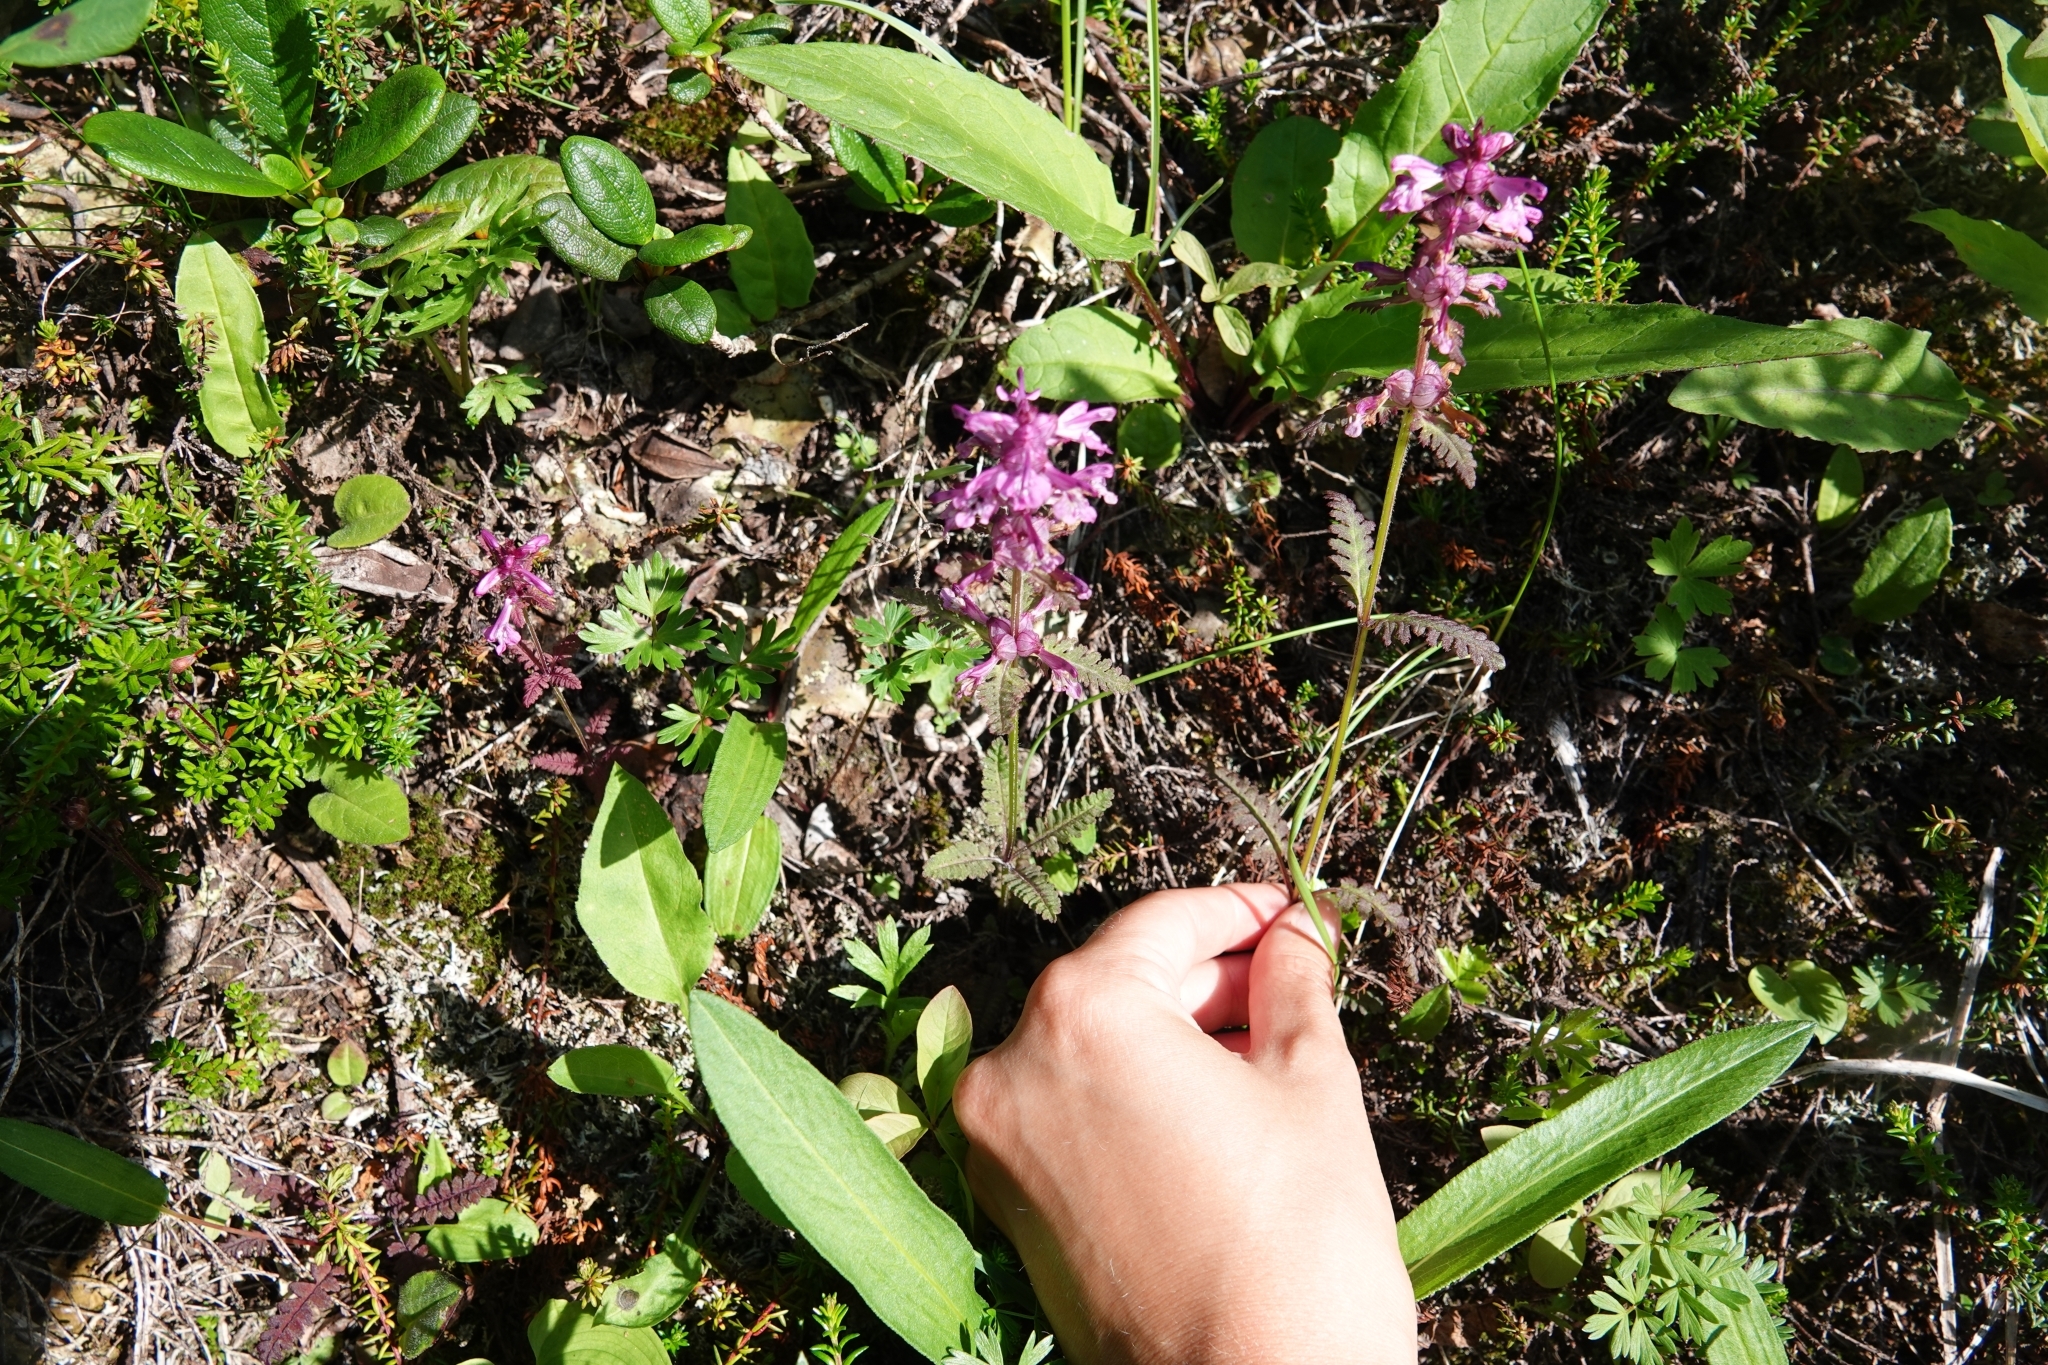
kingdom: Plantae
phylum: Tracheophyta
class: Magnoliopsida
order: Lamiales
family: Orobanchaceae
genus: Pedicularis
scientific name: Pedicularis verticillata
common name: Whorled lousewort
